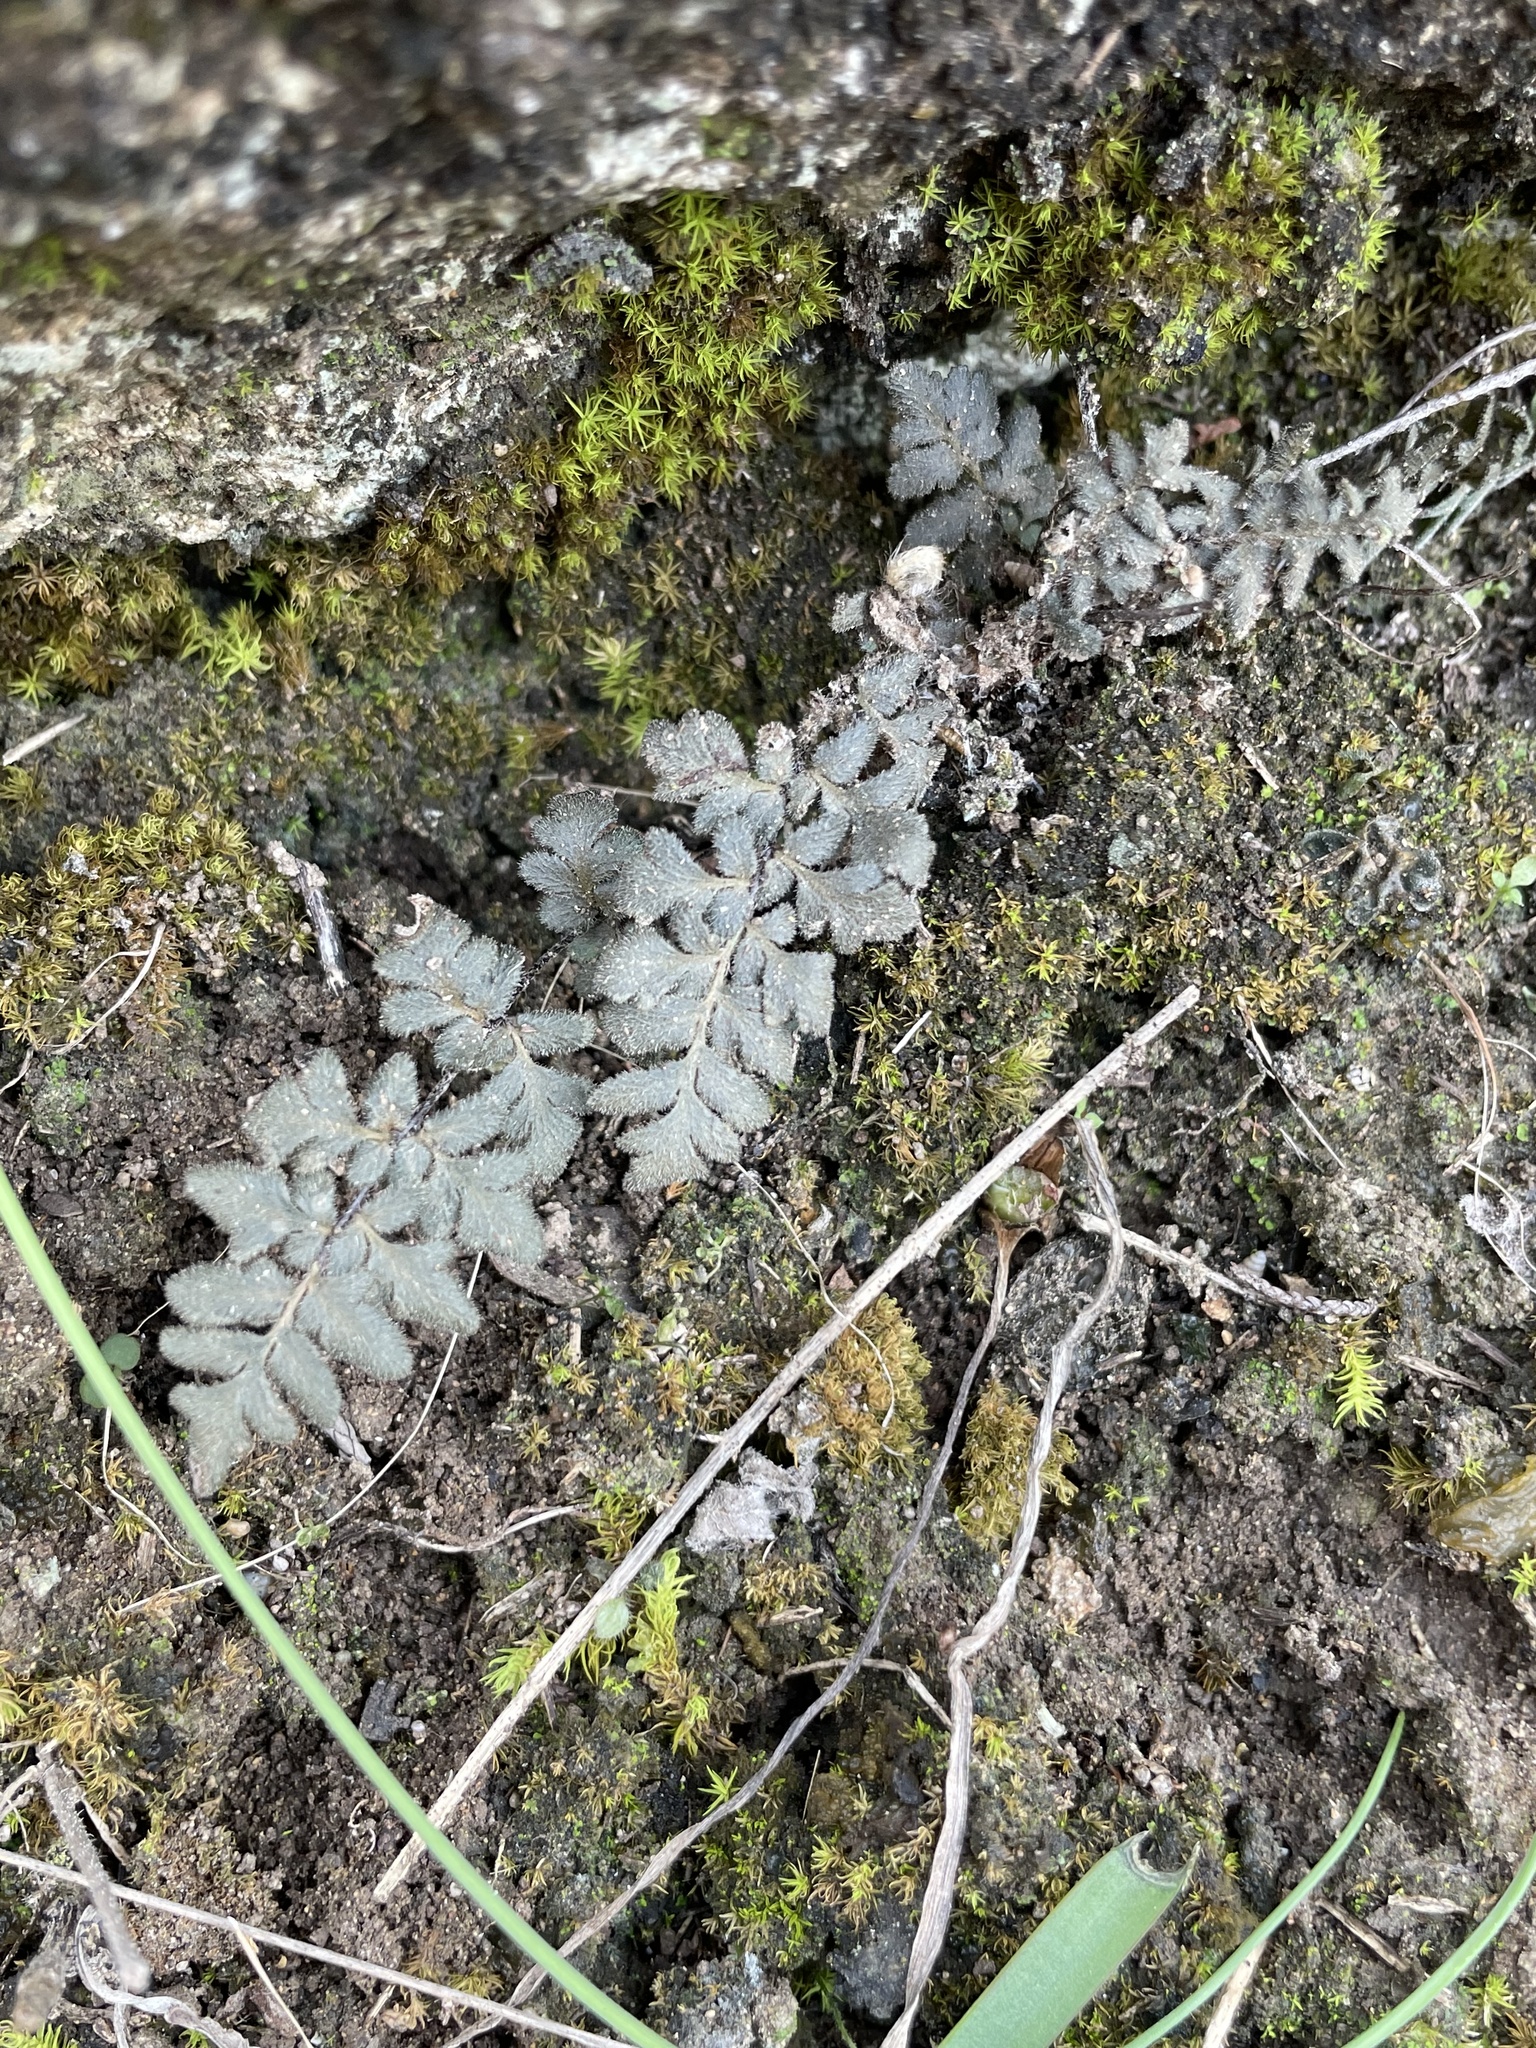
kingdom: Plantae
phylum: Tracheophyta
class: Polypodiopsida
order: Polypodiales
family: Pteridaceae
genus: Myriopteris
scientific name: Myriopteris scabra
